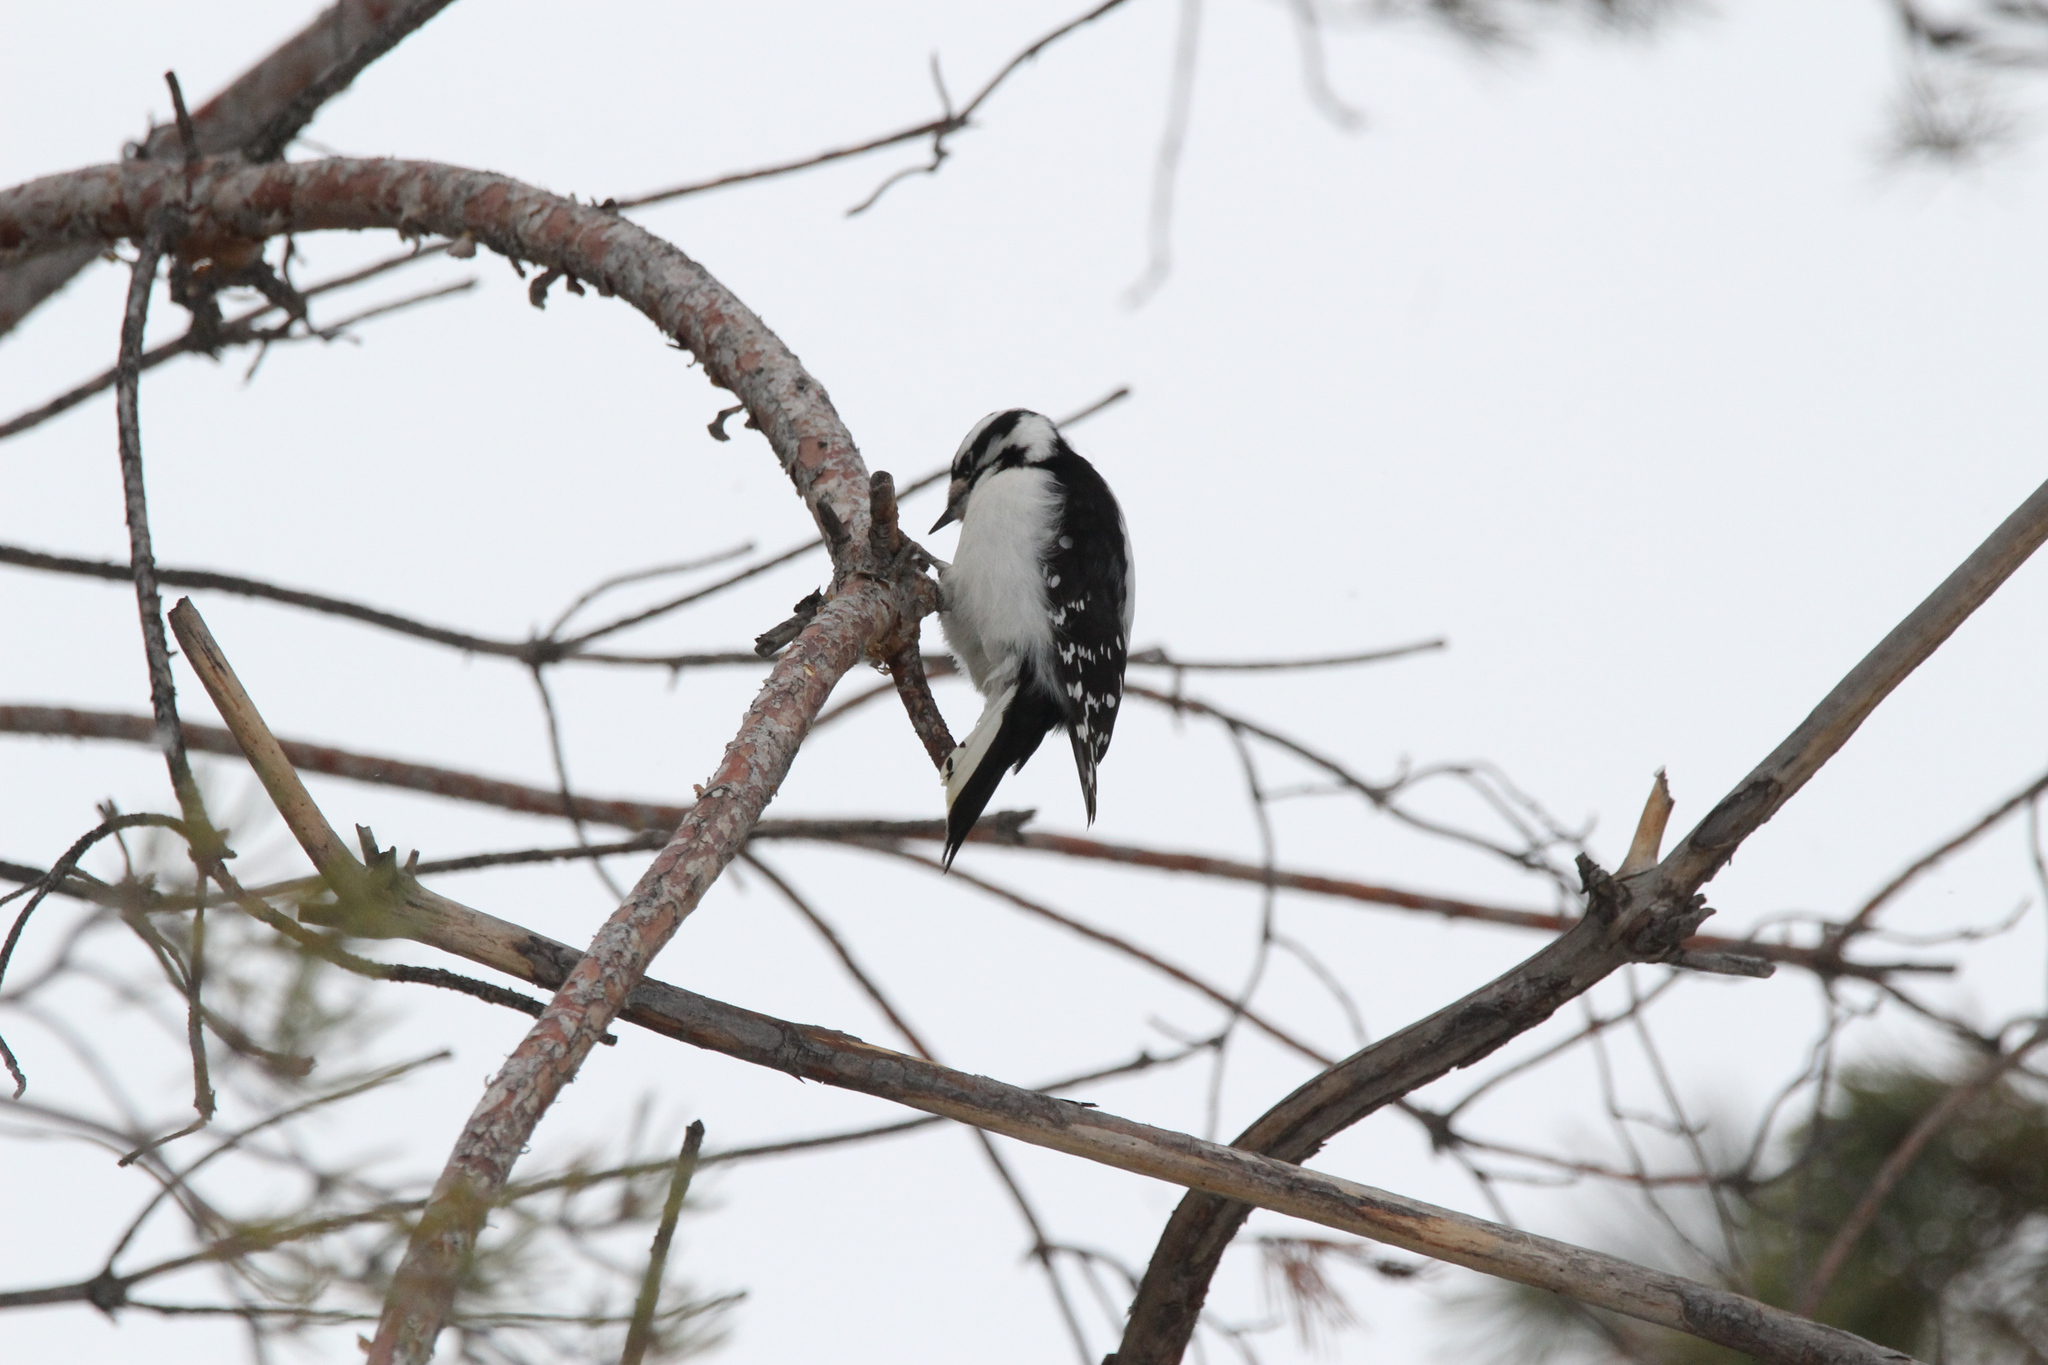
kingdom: Animalia
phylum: Chordata
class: Aves
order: Piciformes
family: Picidae
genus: Dryobates
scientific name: Dryobates pubescens
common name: Downy woodpecker
